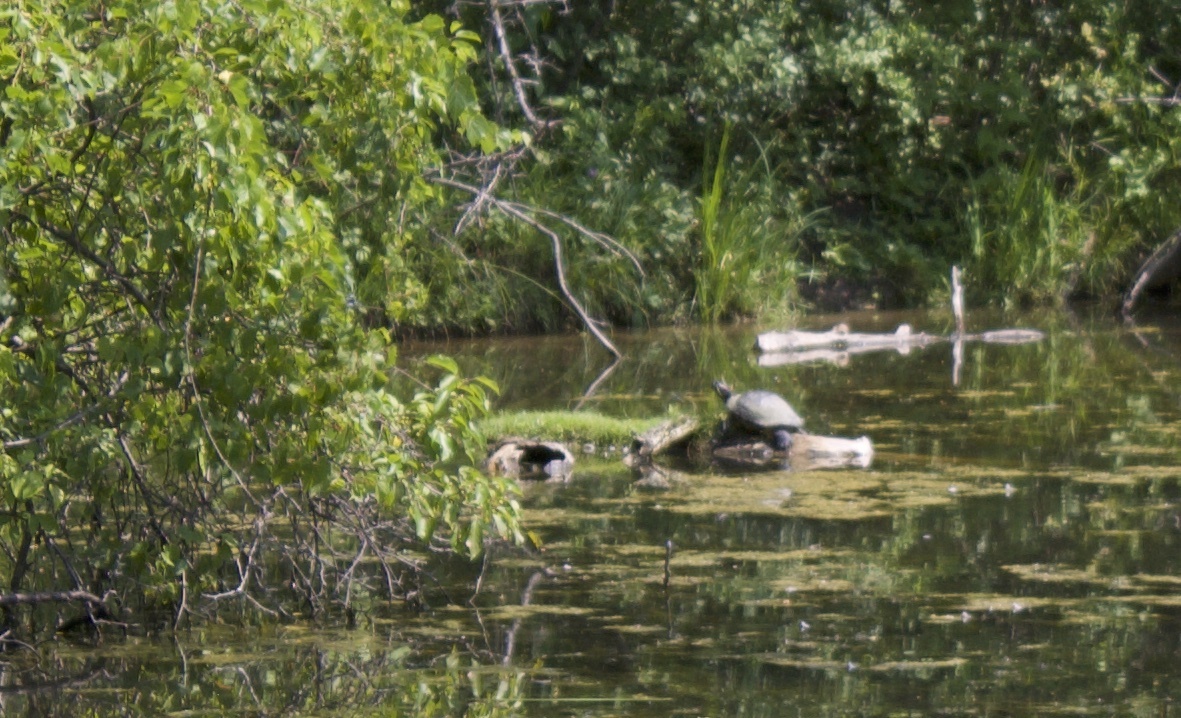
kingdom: Animalia
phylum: Chordata
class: Testudines
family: Emydidae
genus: Trachemys
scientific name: Trachemys scripta
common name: Slider
